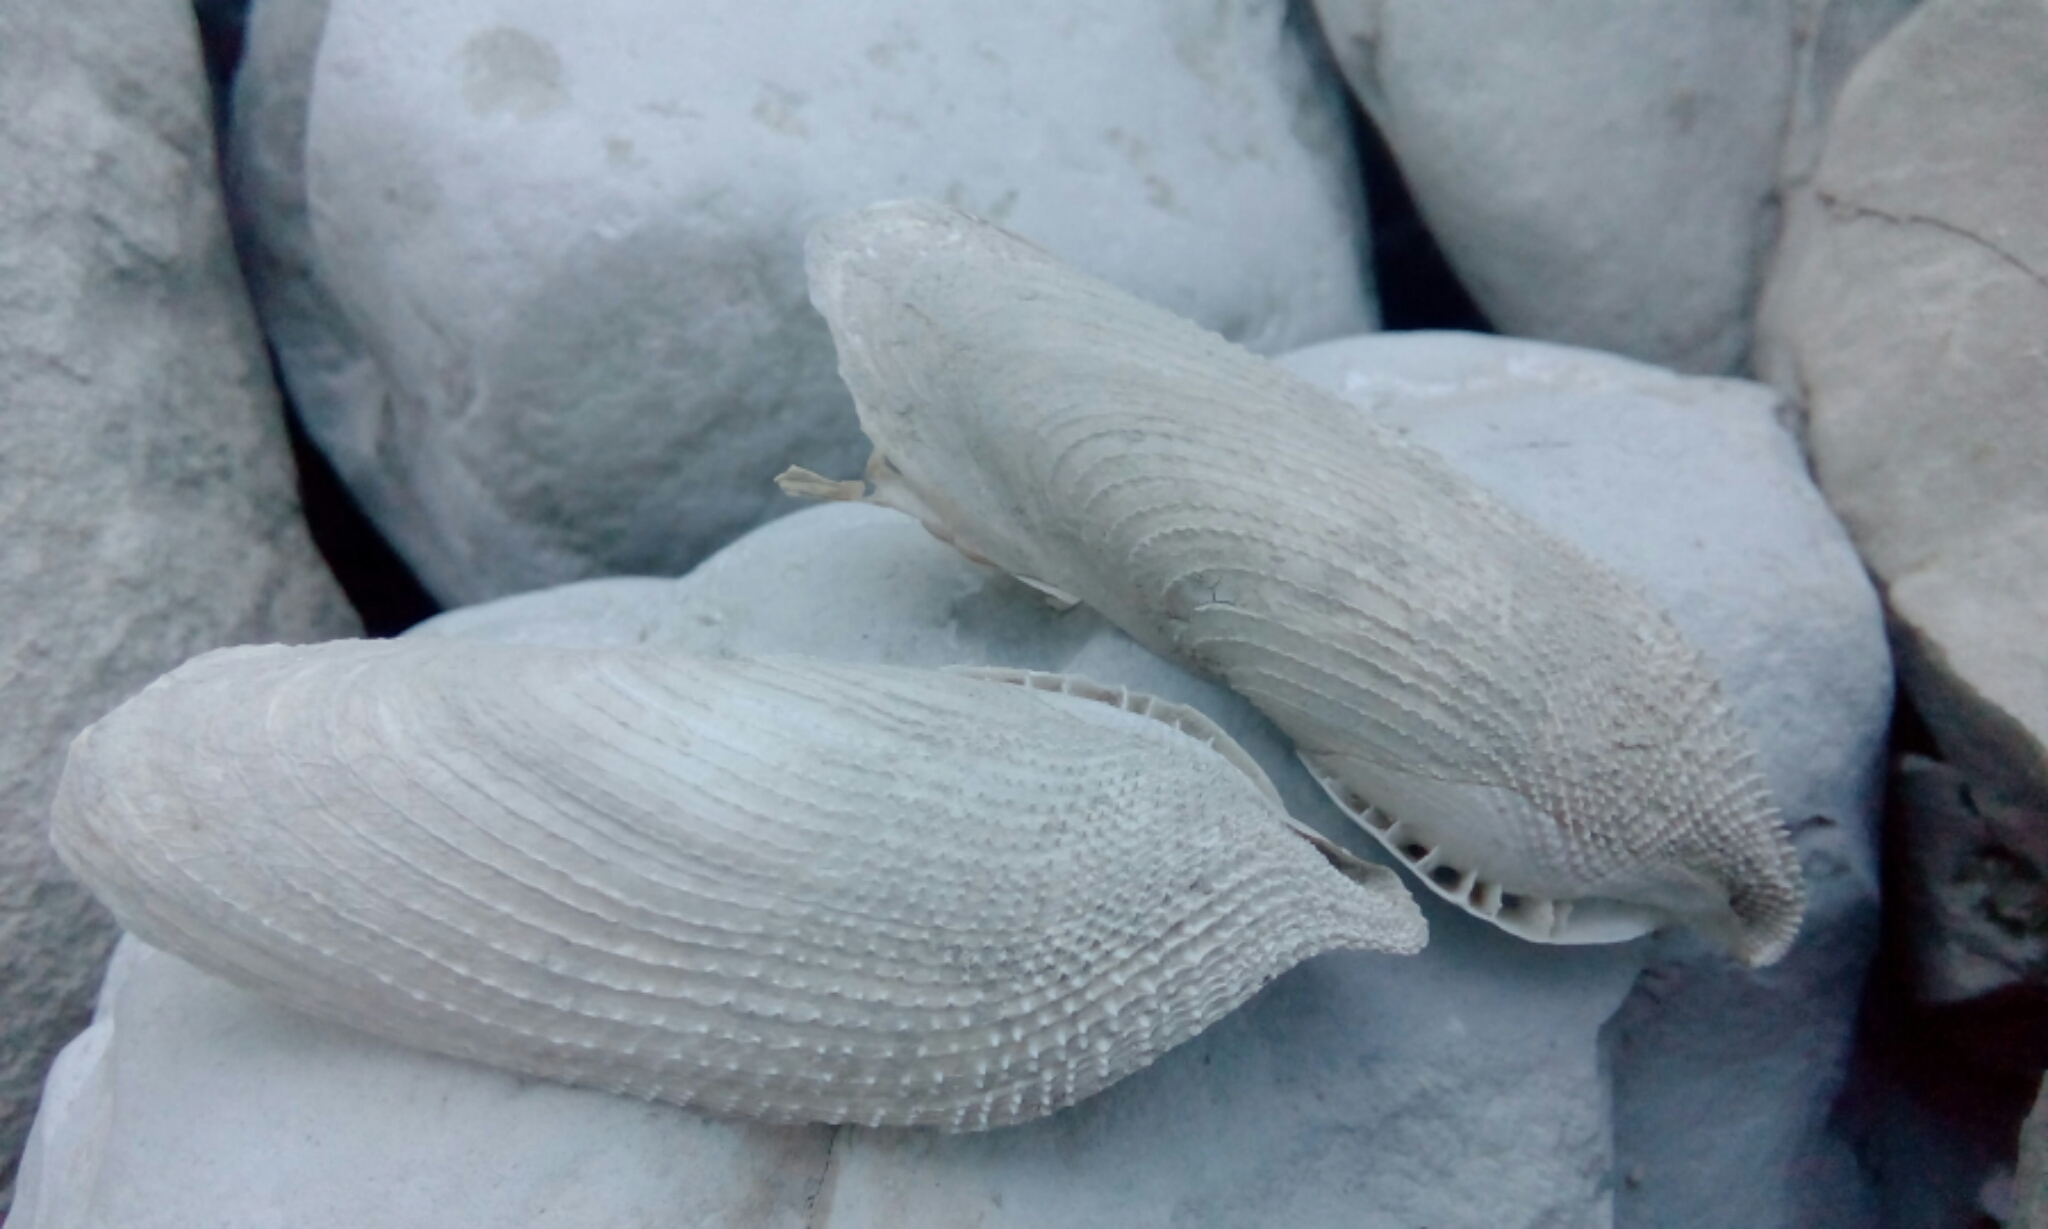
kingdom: Animalia
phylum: Mollusca
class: Bivalvia
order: Myida
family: Pholadidae
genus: Pholas
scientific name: Pholas dactylus
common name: Common piddock
